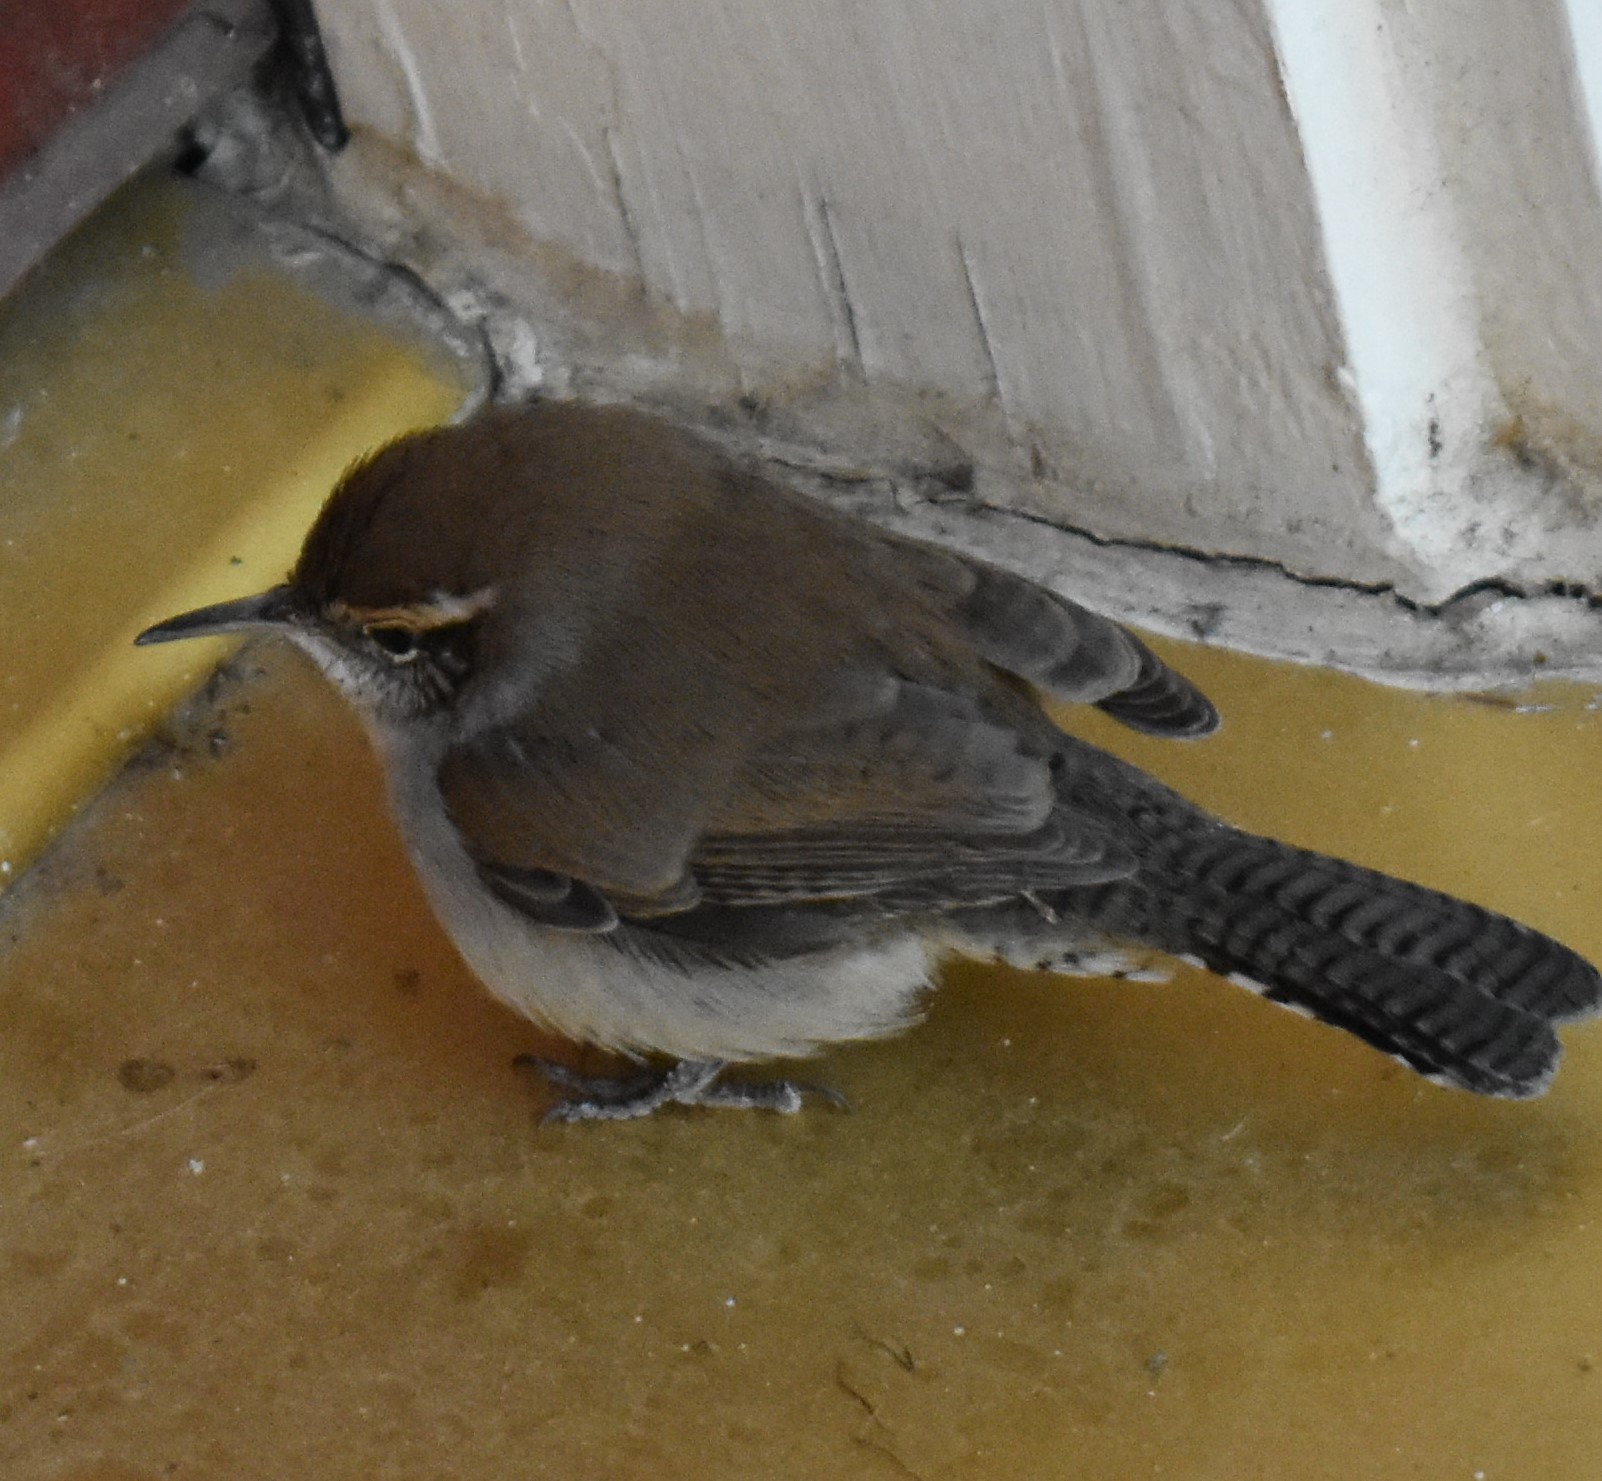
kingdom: Animalia
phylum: Chordata
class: Aves
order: Passeriformes
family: Troglodytidae
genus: Thryomanes
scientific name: Thryomanes bewickii
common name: Bewick's wren
